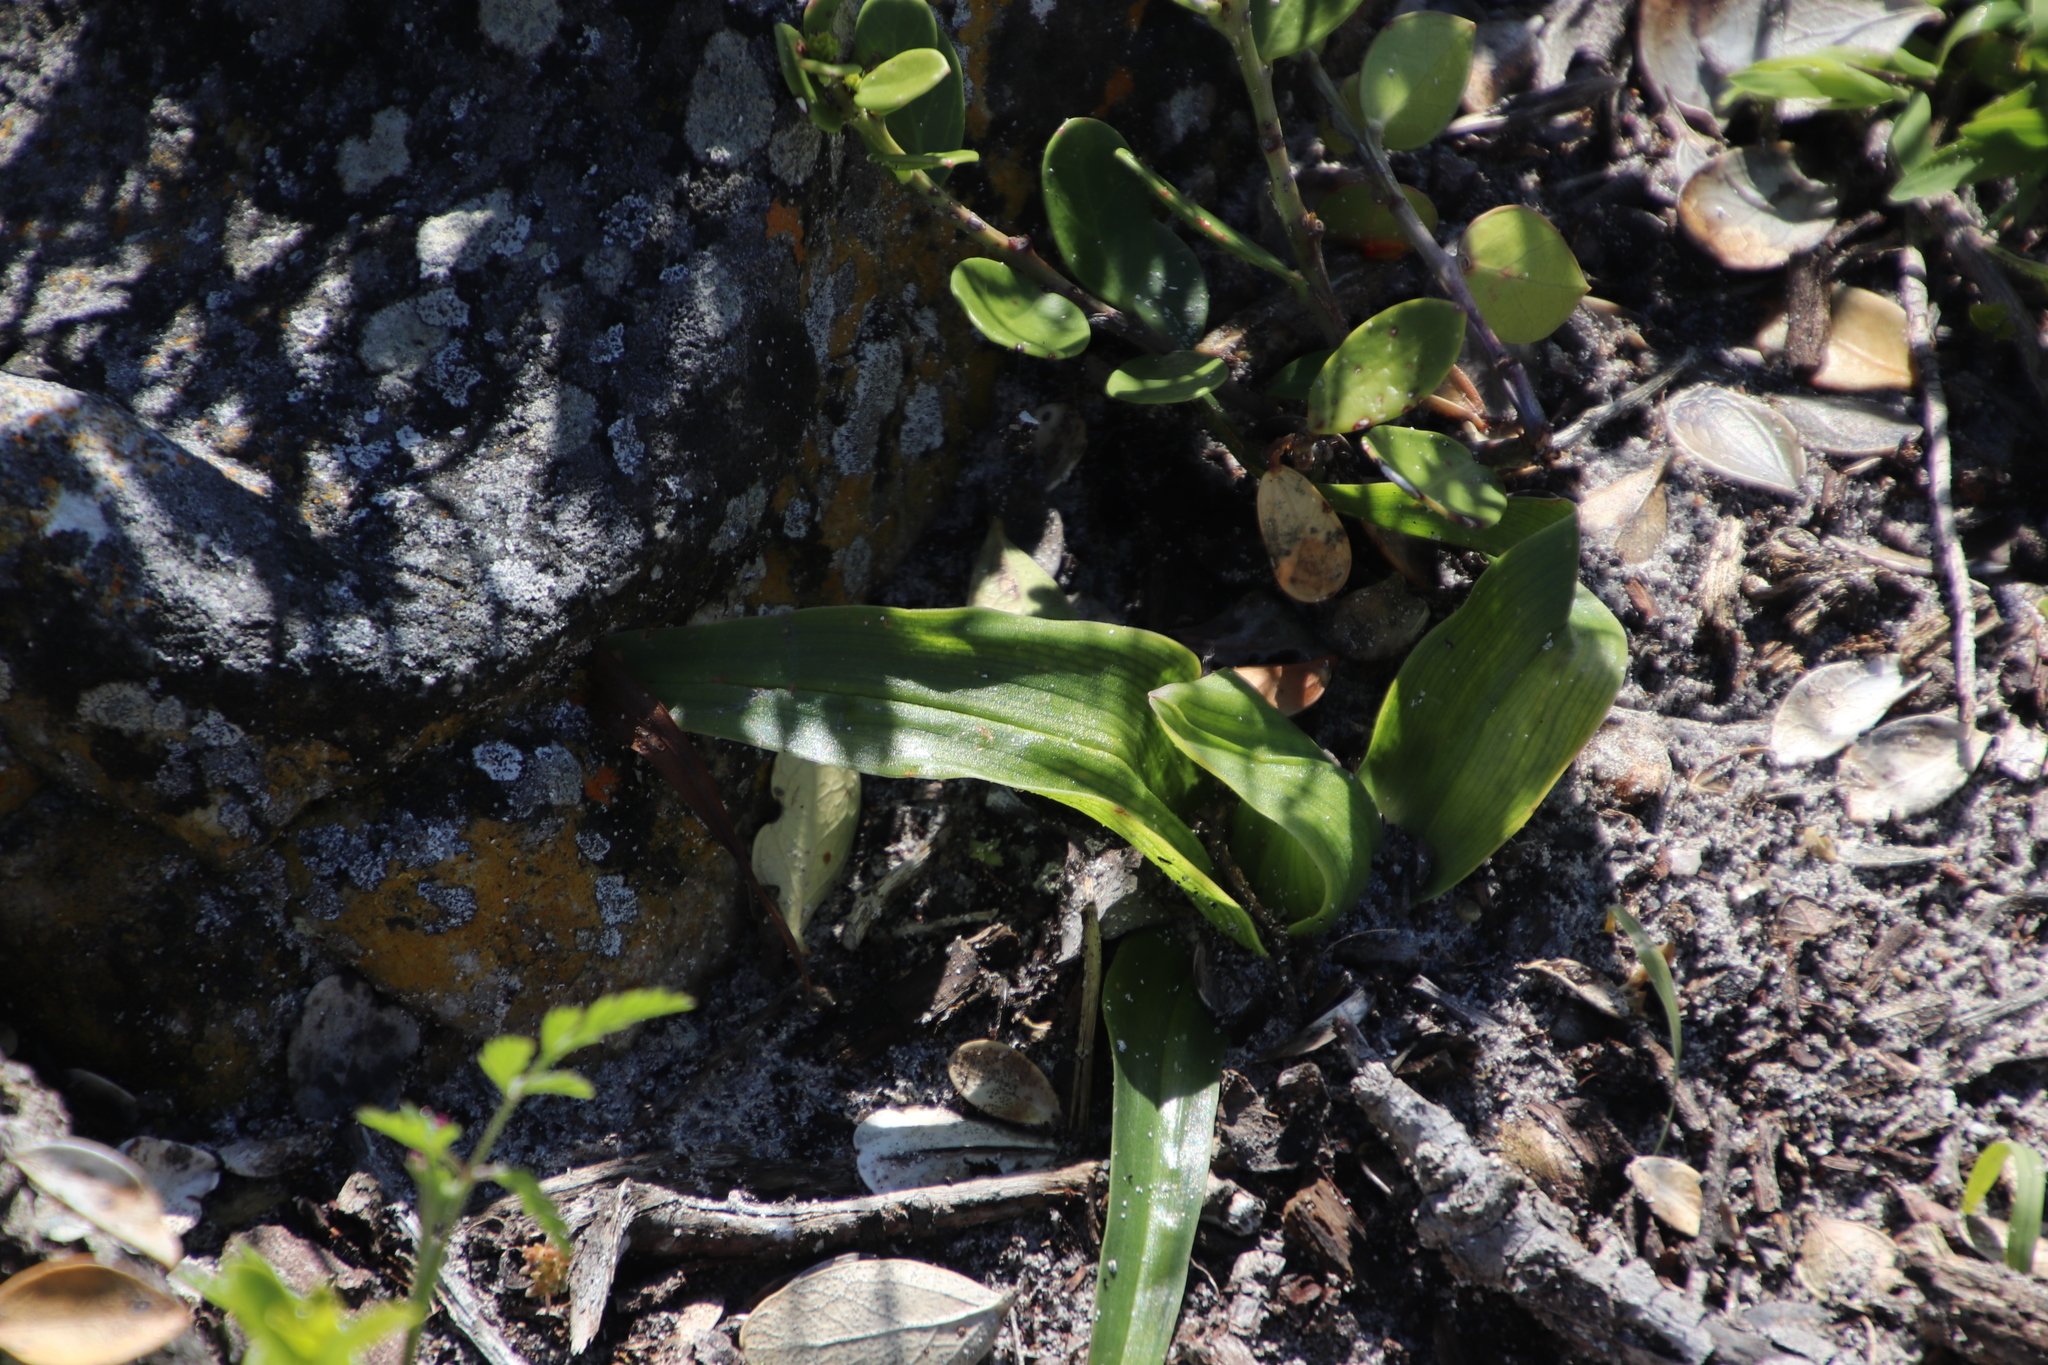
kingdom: Plantae
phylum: Tracheophyta
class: Liliopsida
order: Liliales
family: Colchicaceae
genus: Colchicum
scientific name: Colchicum eucomoides
